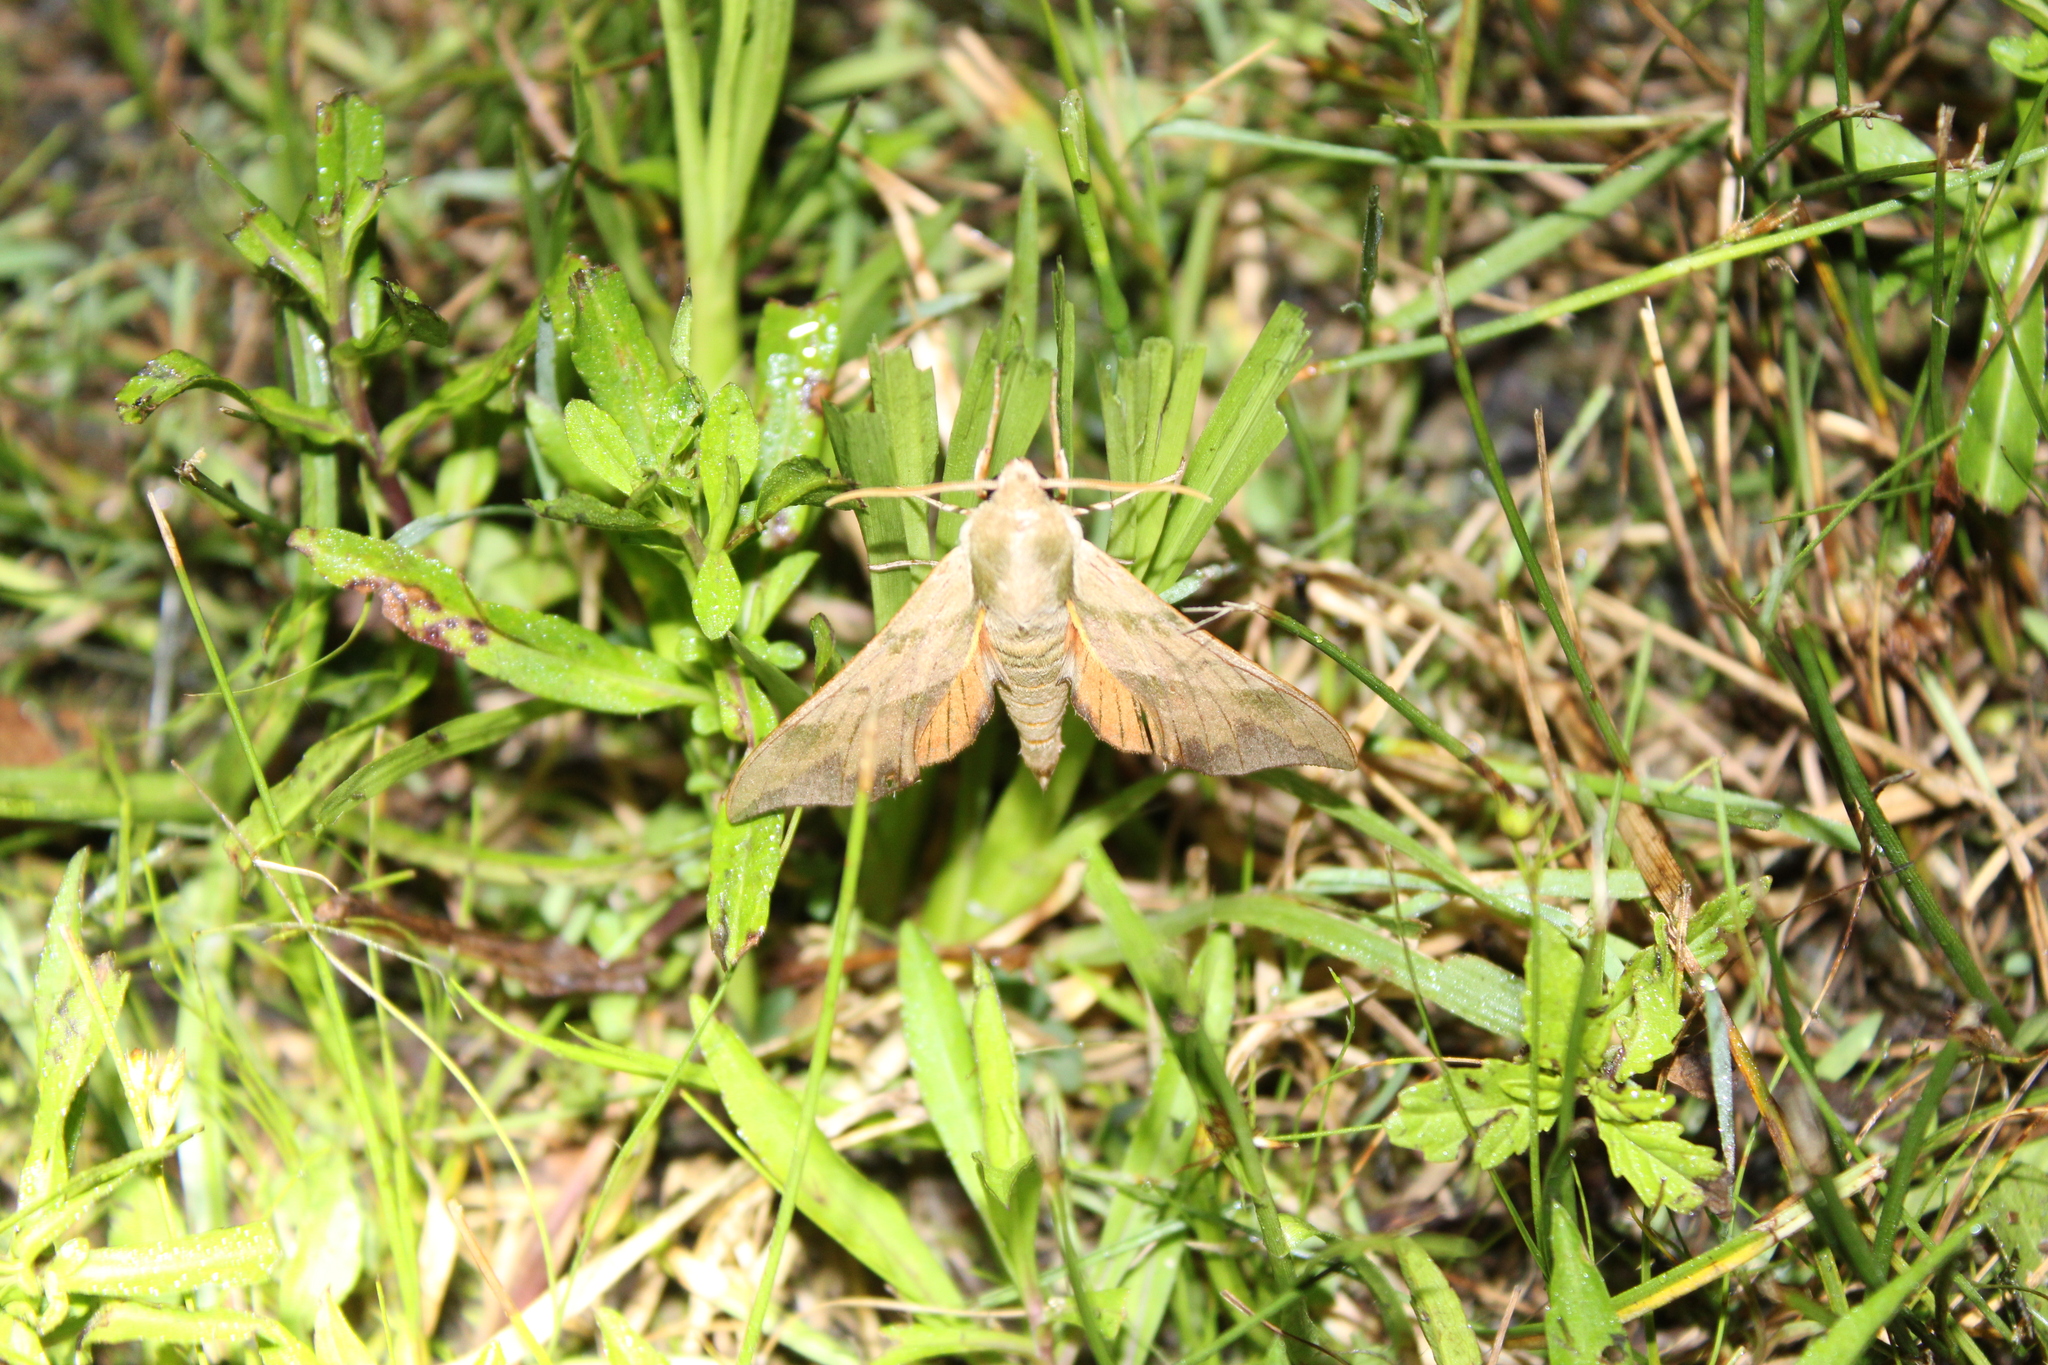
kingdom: Animalia
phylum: Arthropoda
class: Insecta
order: Lepidoptera
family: Sphingidae
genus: Darapsa
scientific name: Darapsa myron
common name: Hog sphinx
